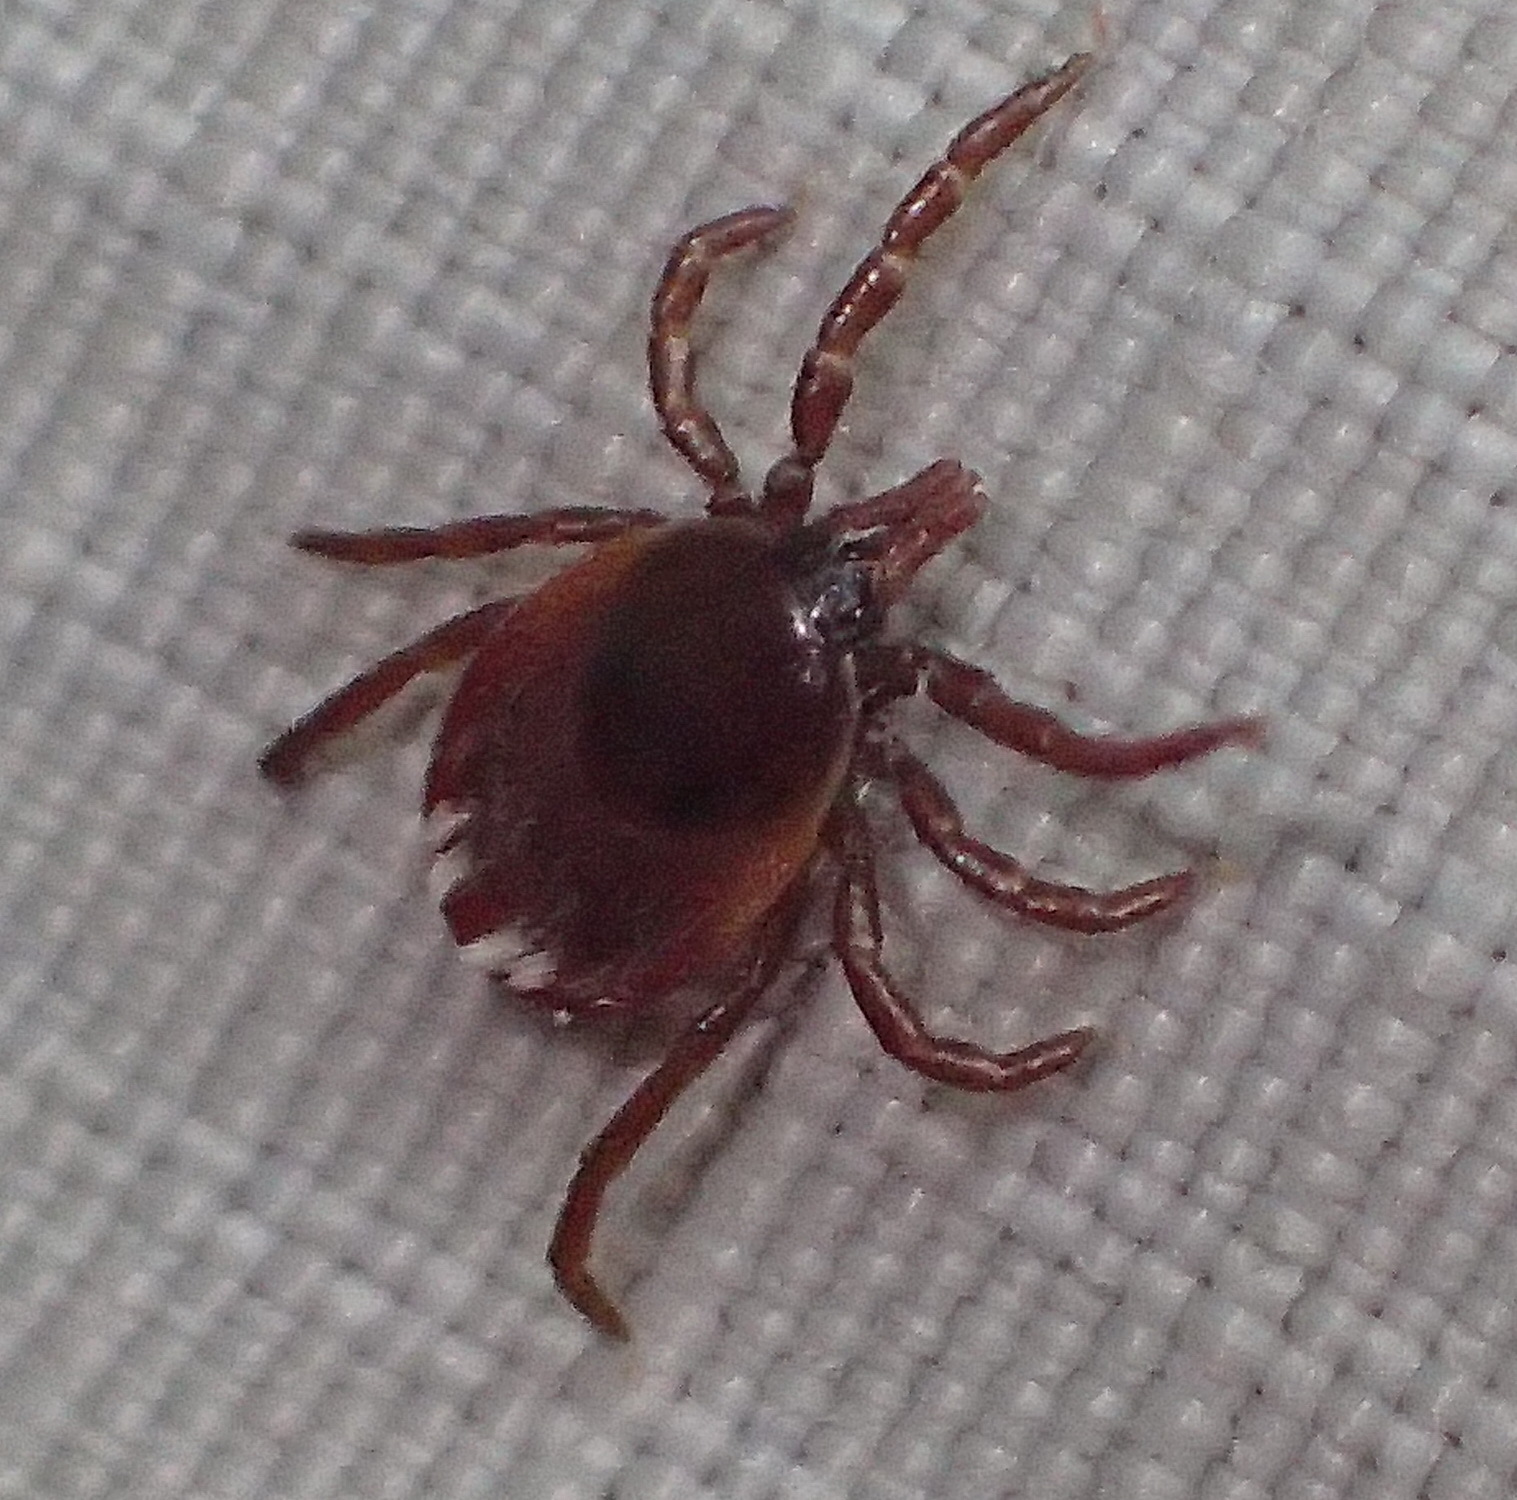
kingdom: Animalia
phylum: Arthropoda
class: Arachnida
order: Ixodida
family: Ixodidae
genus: Ixodes
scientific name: Ixodes pilosus
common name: Bush tick
